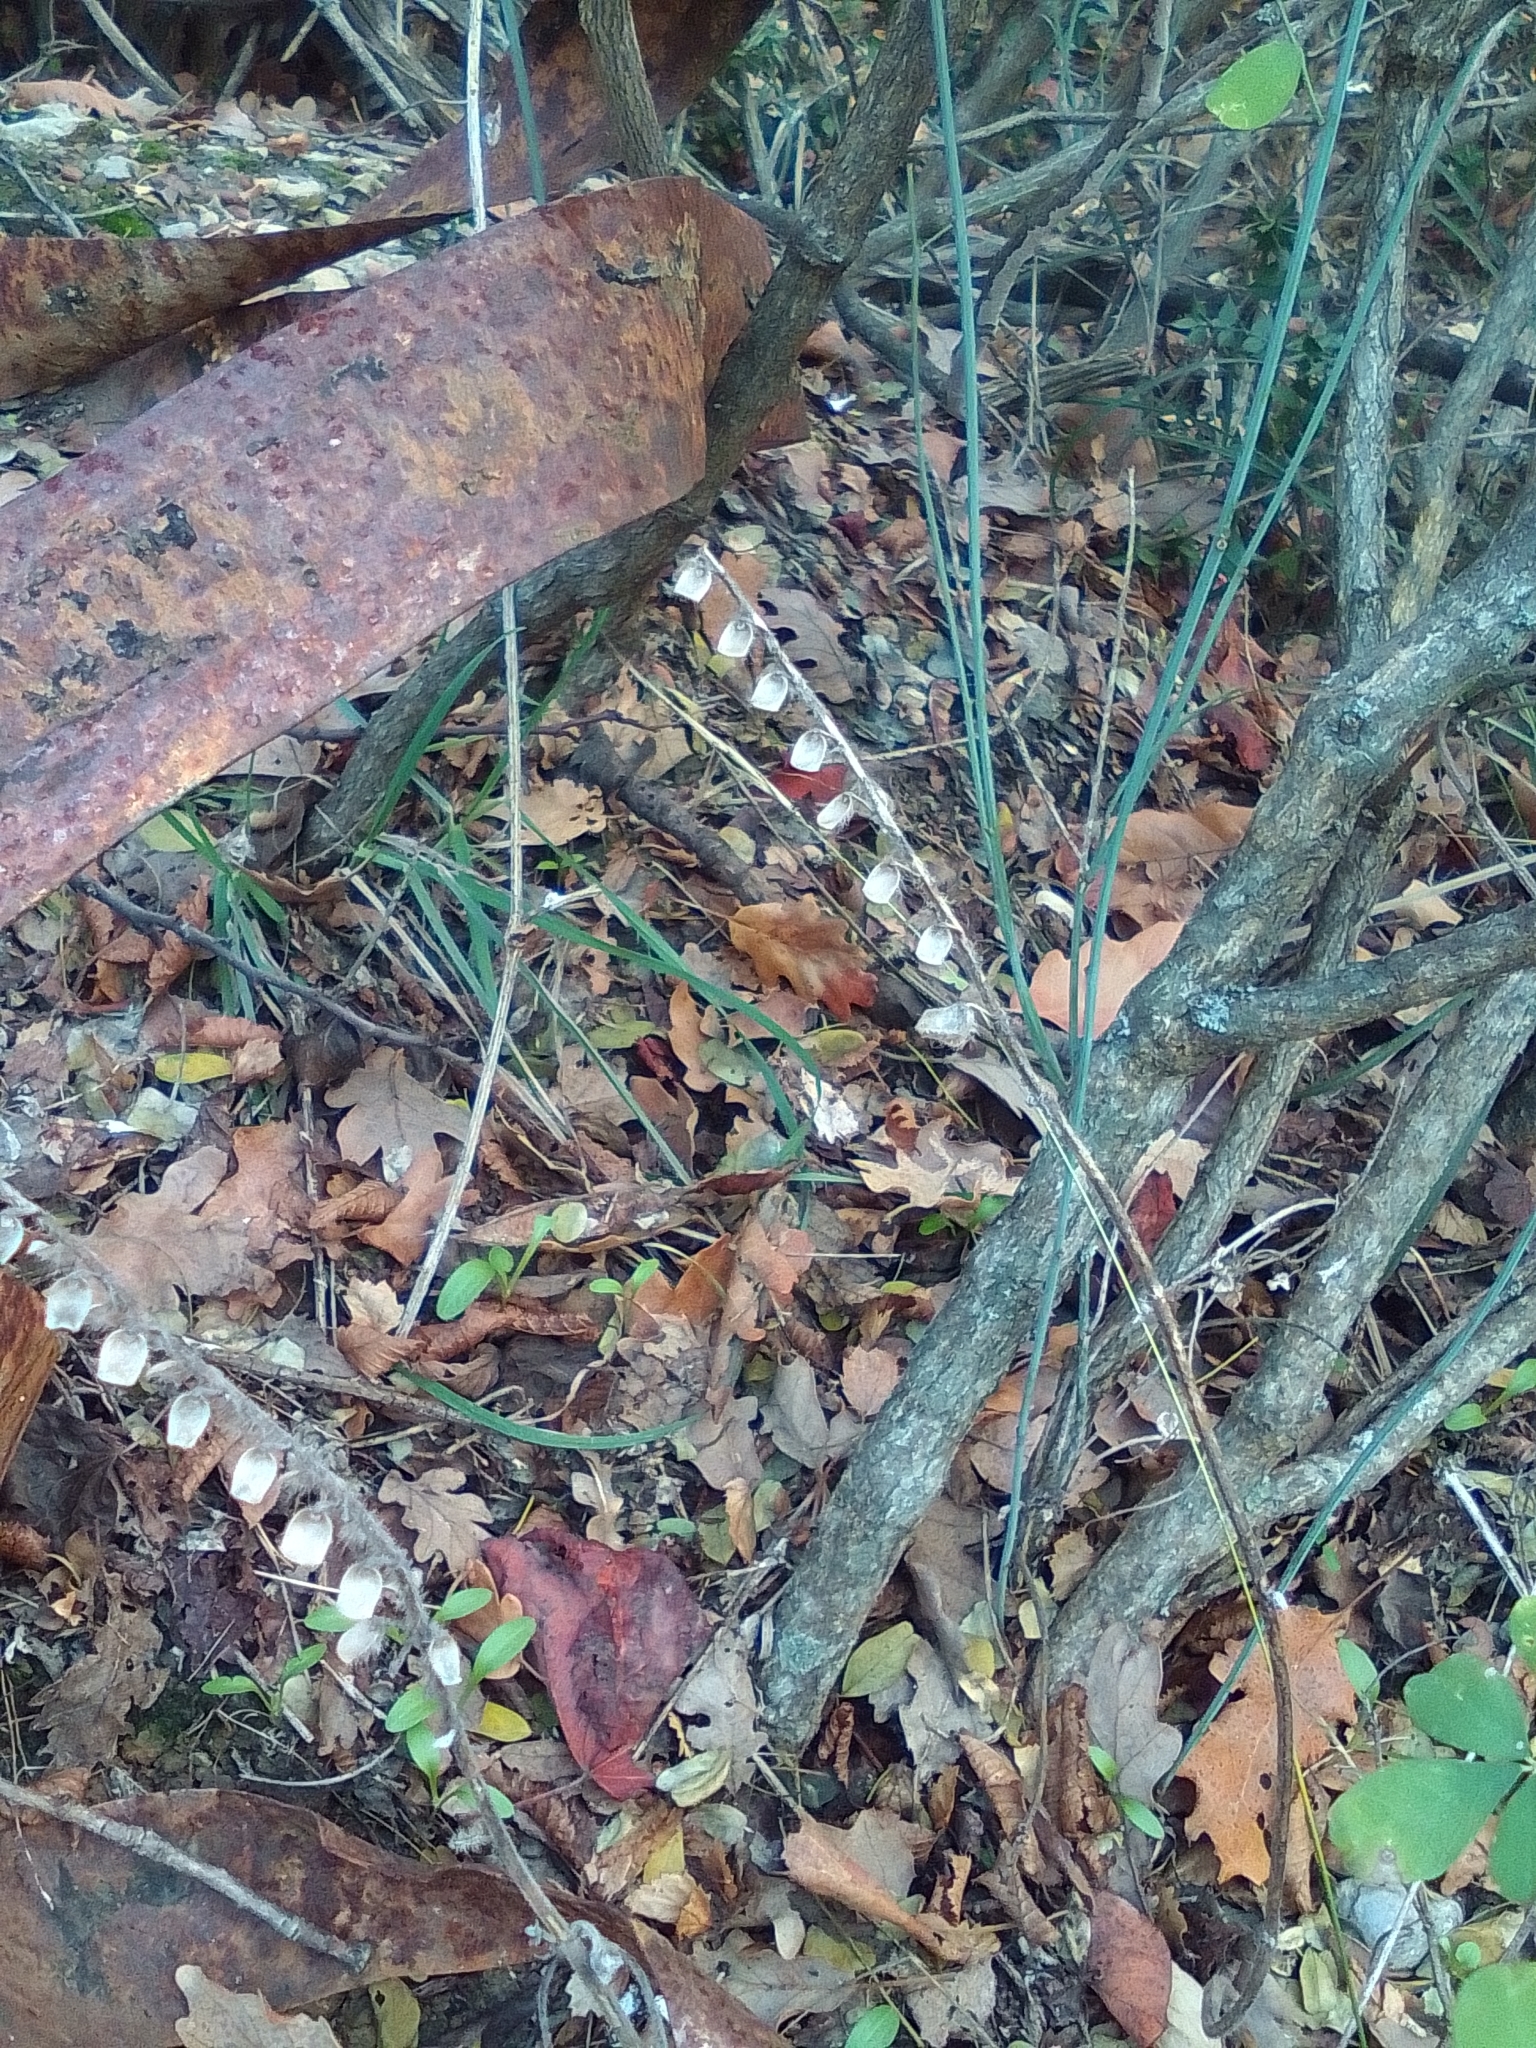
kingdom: Plantae
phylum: Tracheophyta
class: Magnoliopsida
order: Lamiales
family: Lamiaceae
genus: Scutellaria
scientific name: Scutellaria altissima
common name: Somerset skullcap
